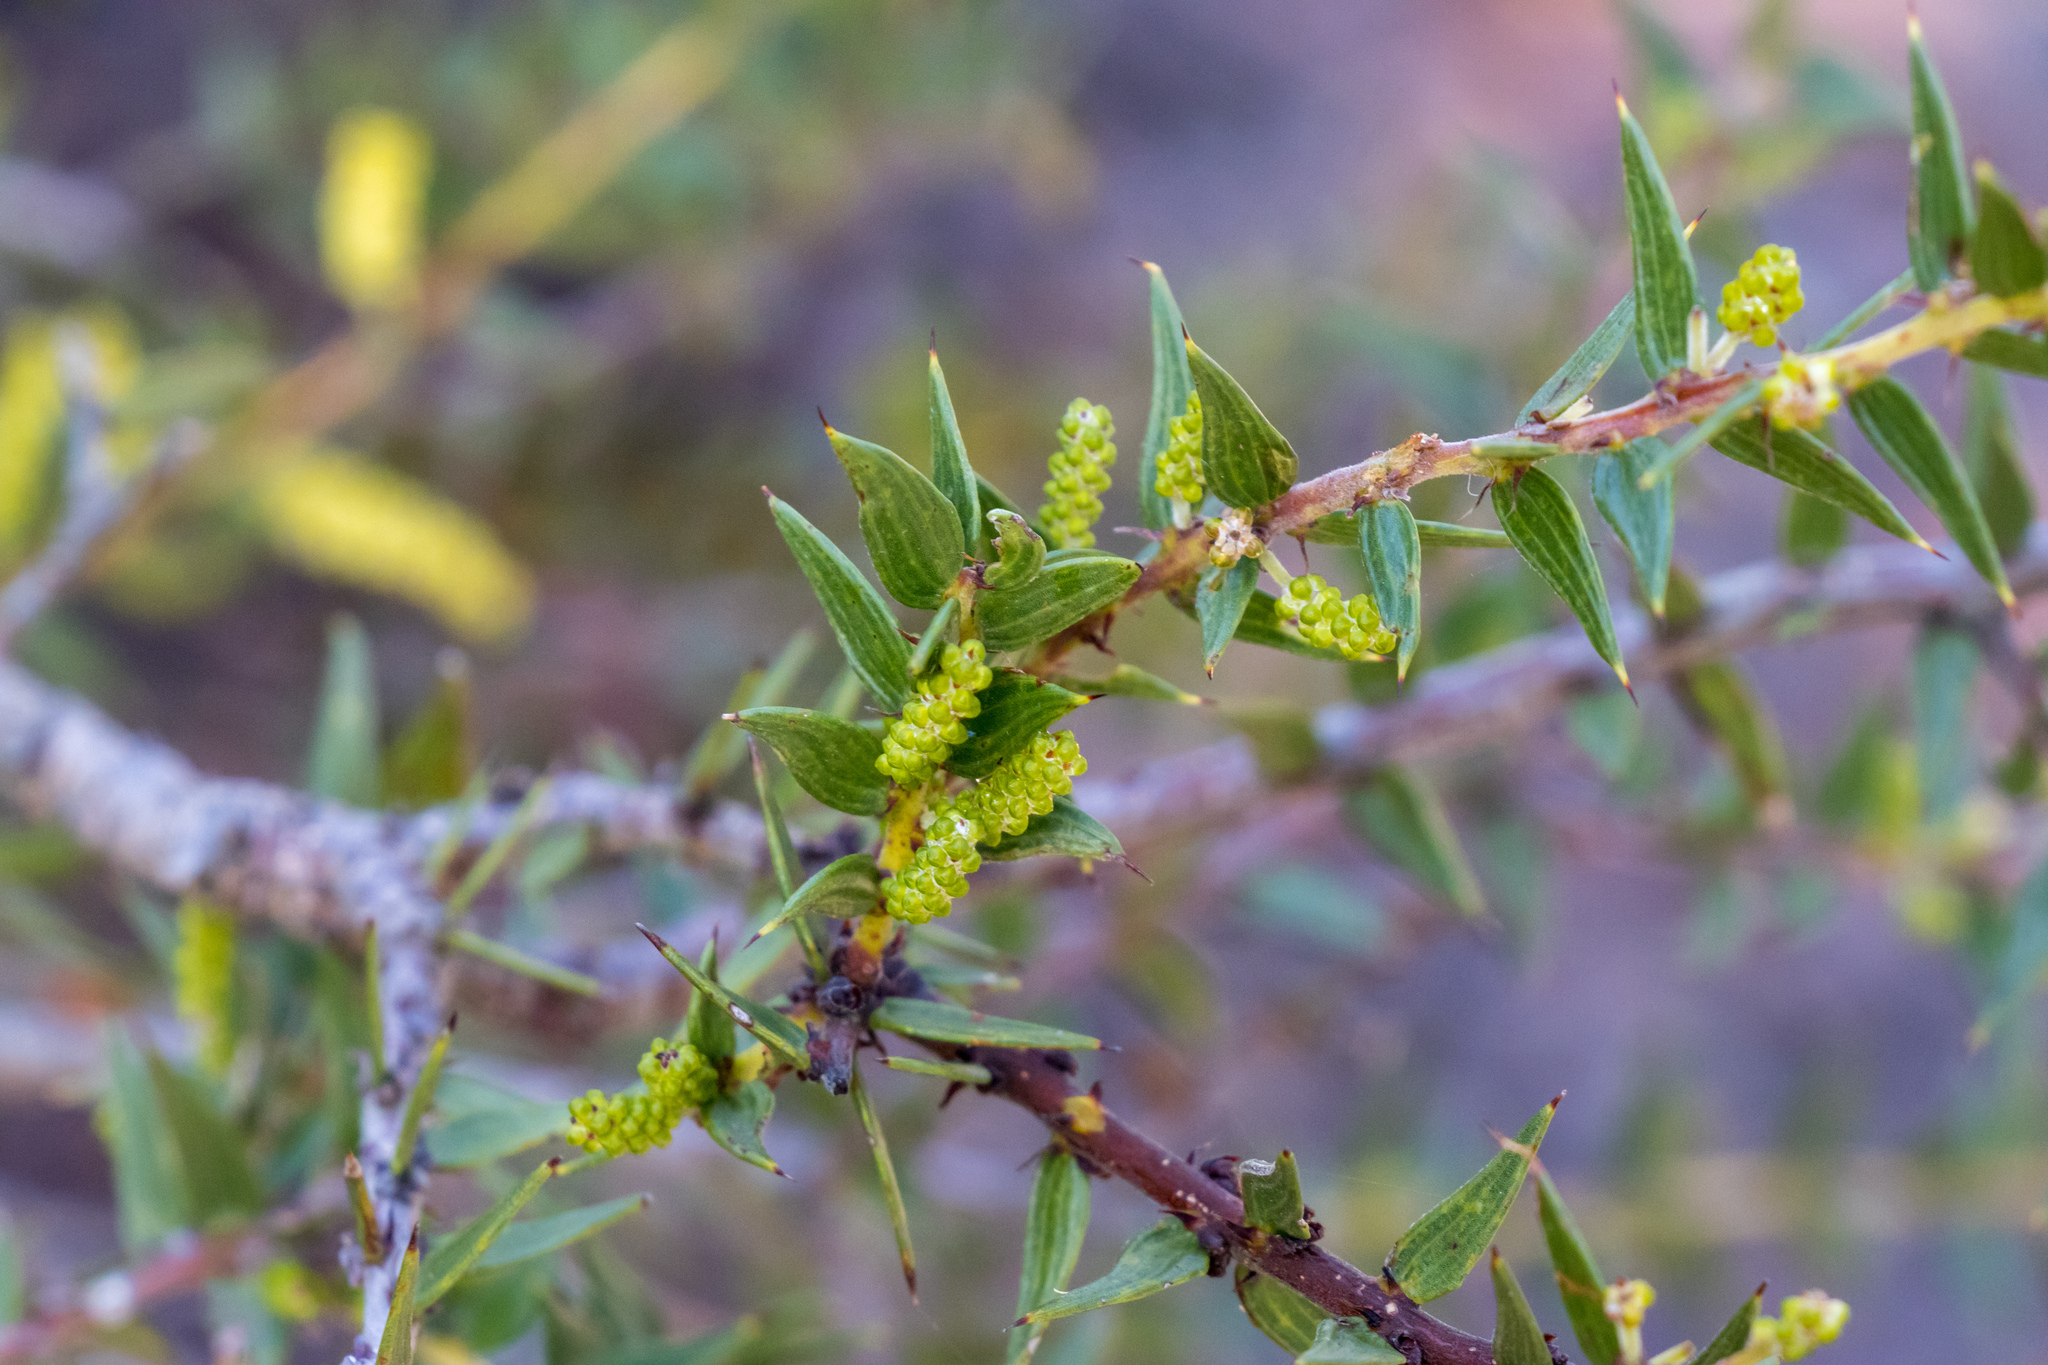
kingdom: Plantae
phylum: Tracheophyta
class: Magnoliopsida
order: Fabales
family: Fabaceae
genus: Acacia
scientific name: Acacia oxycedrus
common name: Spike wattle
